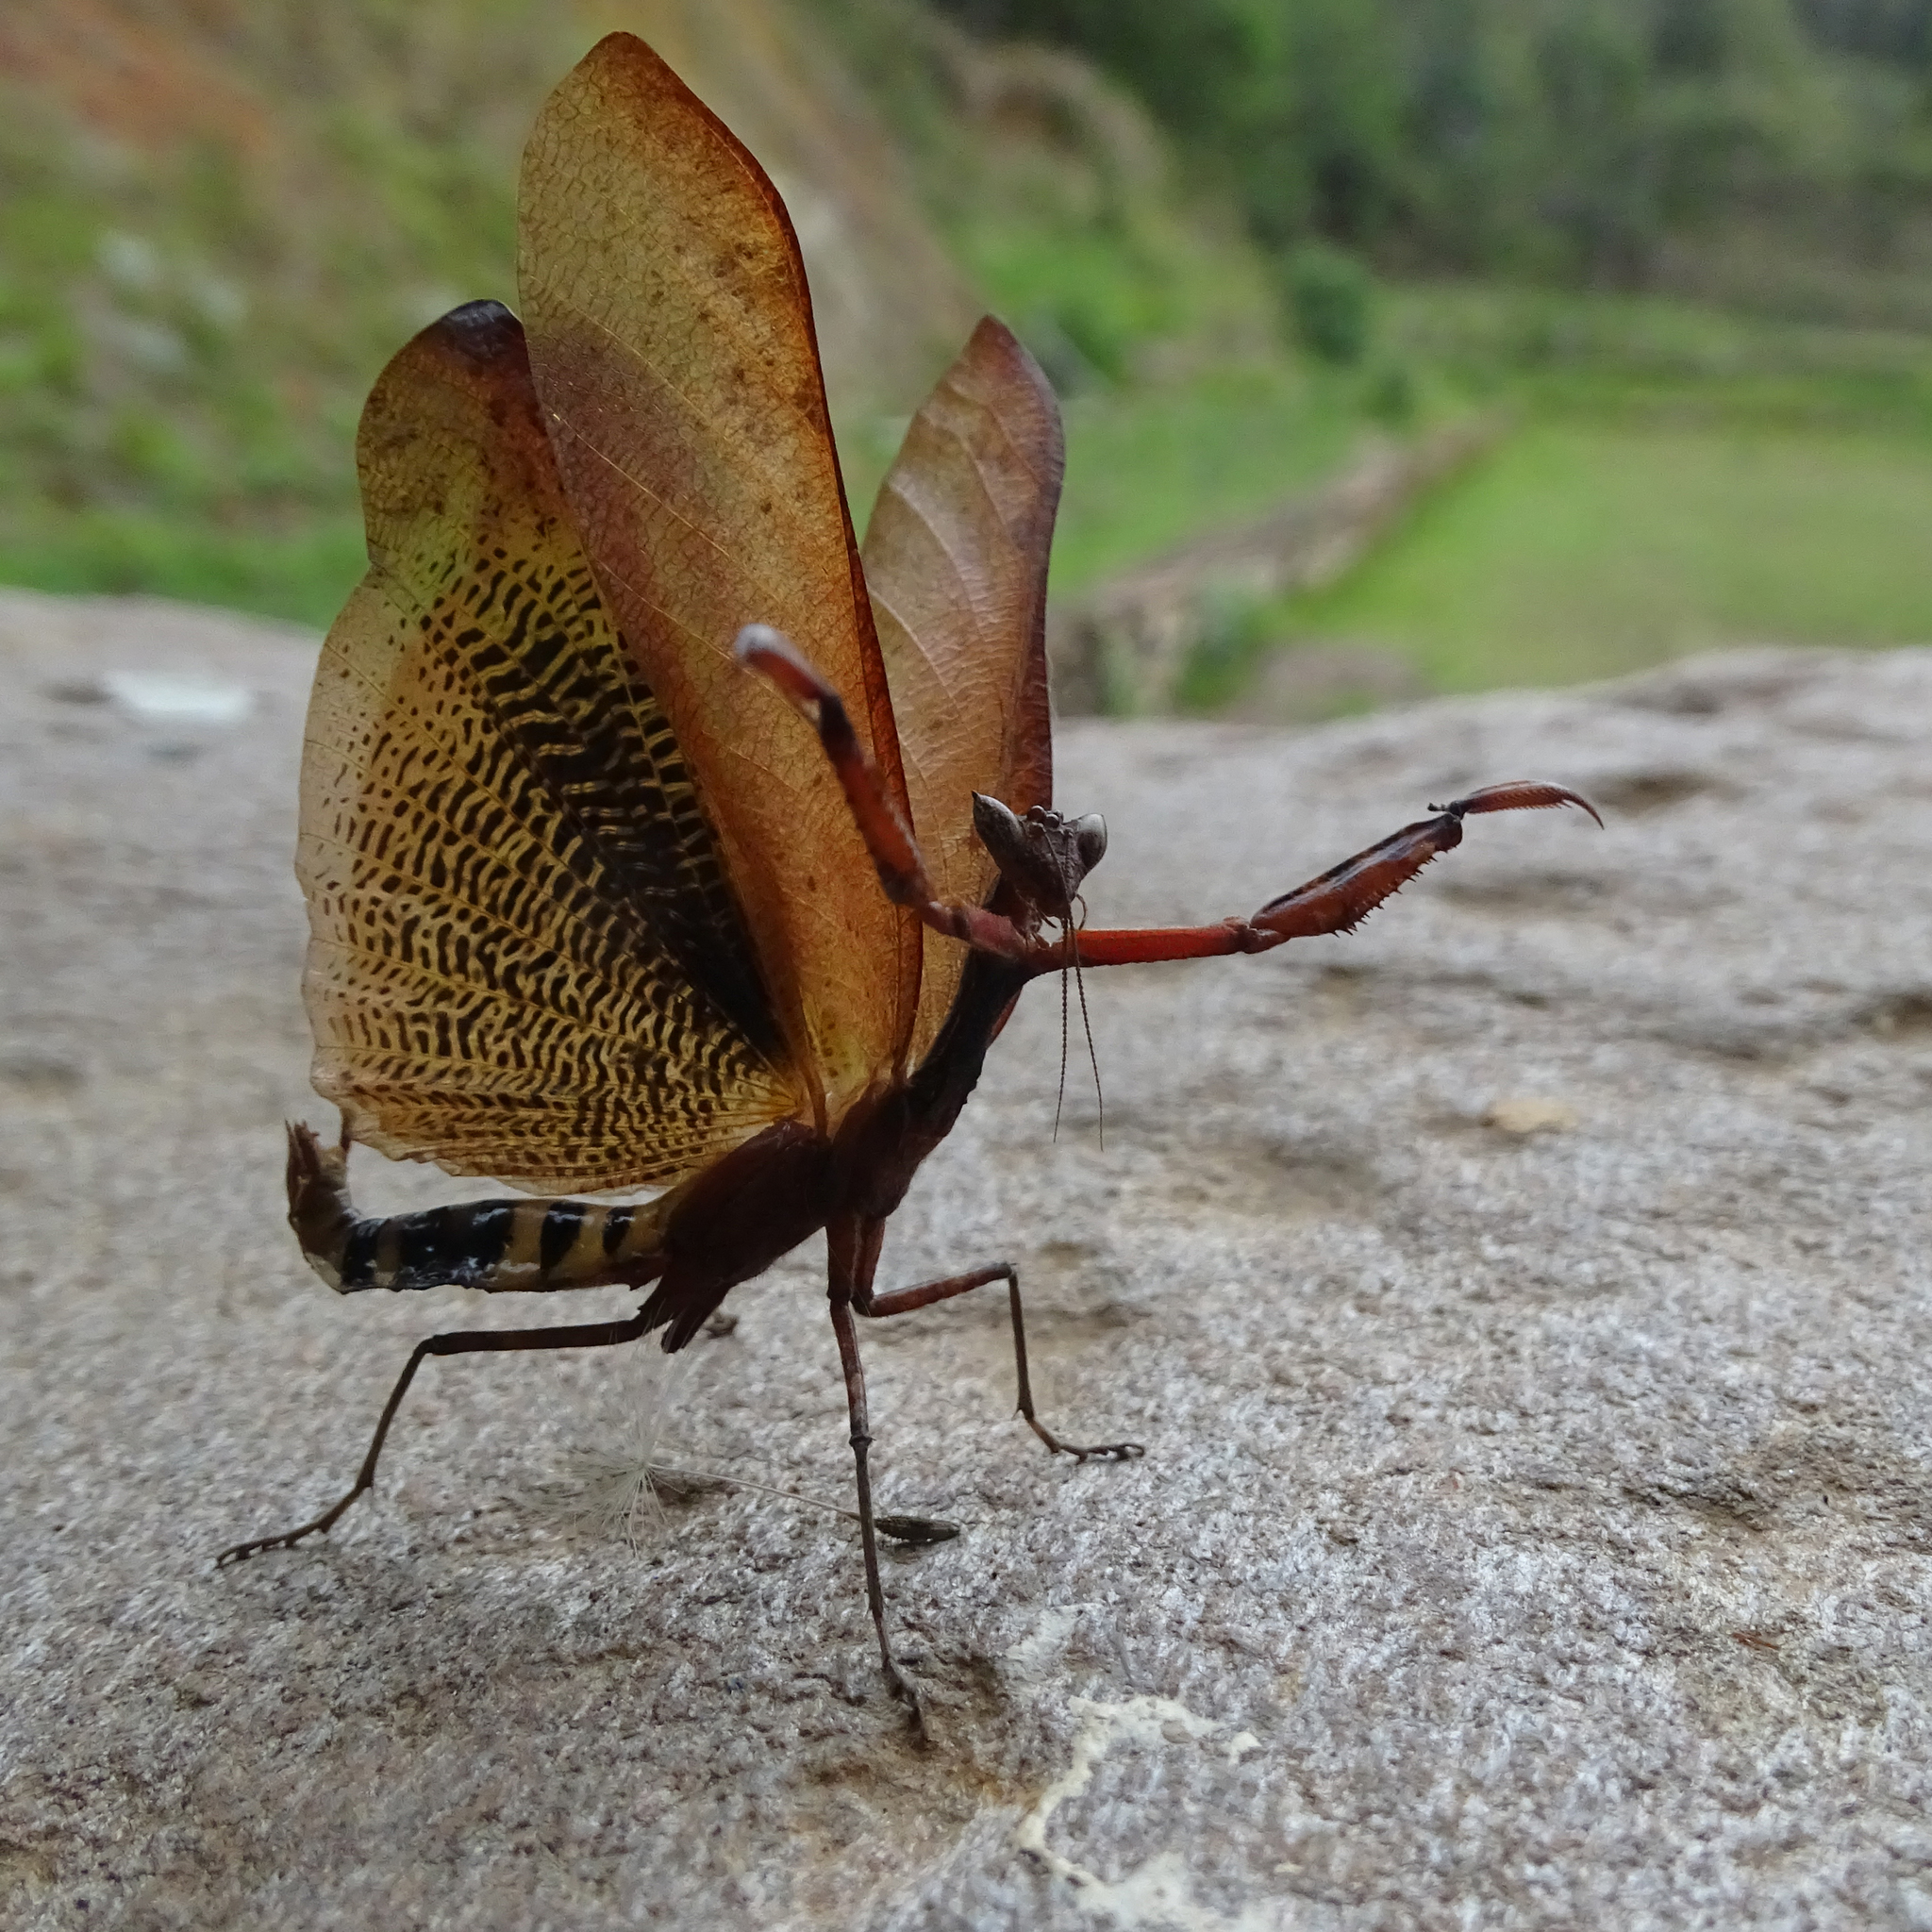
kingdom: Animalia
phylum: Arthropoda
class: Insecta
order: Mantodea
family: Acanthopidae
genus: Decimiana
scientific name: Decimiana tessellata
